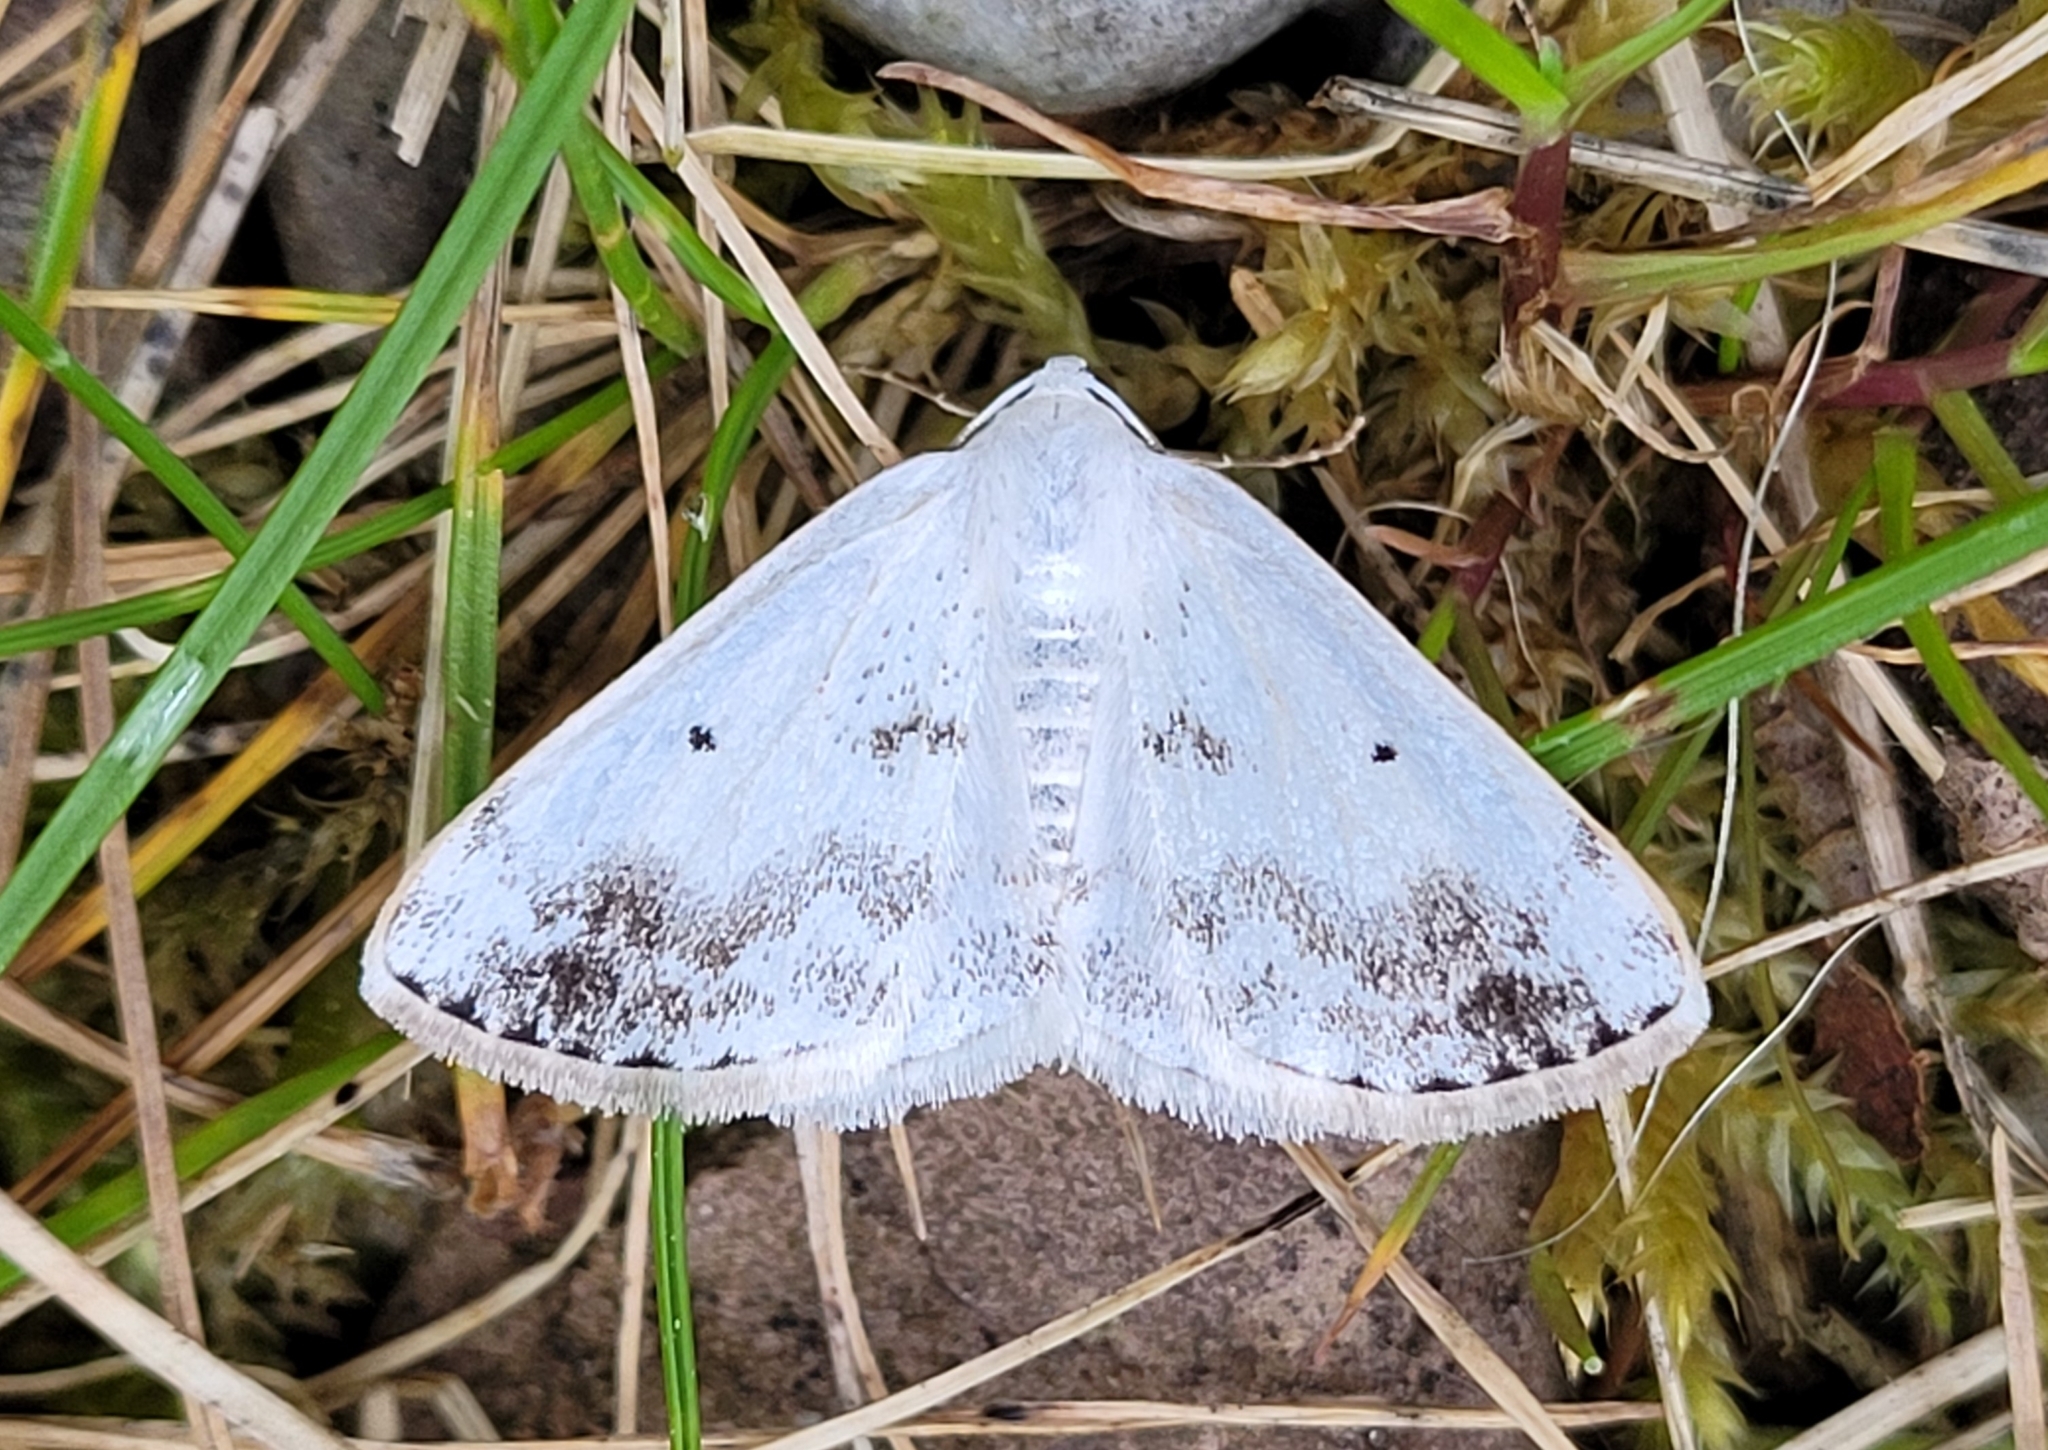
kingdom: Animalia
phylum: Arthropoda
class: Insecta
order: Lepidoptera
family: Geometridae
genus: Lomographa
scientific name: Lomographa temerata
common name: Clouded silver
